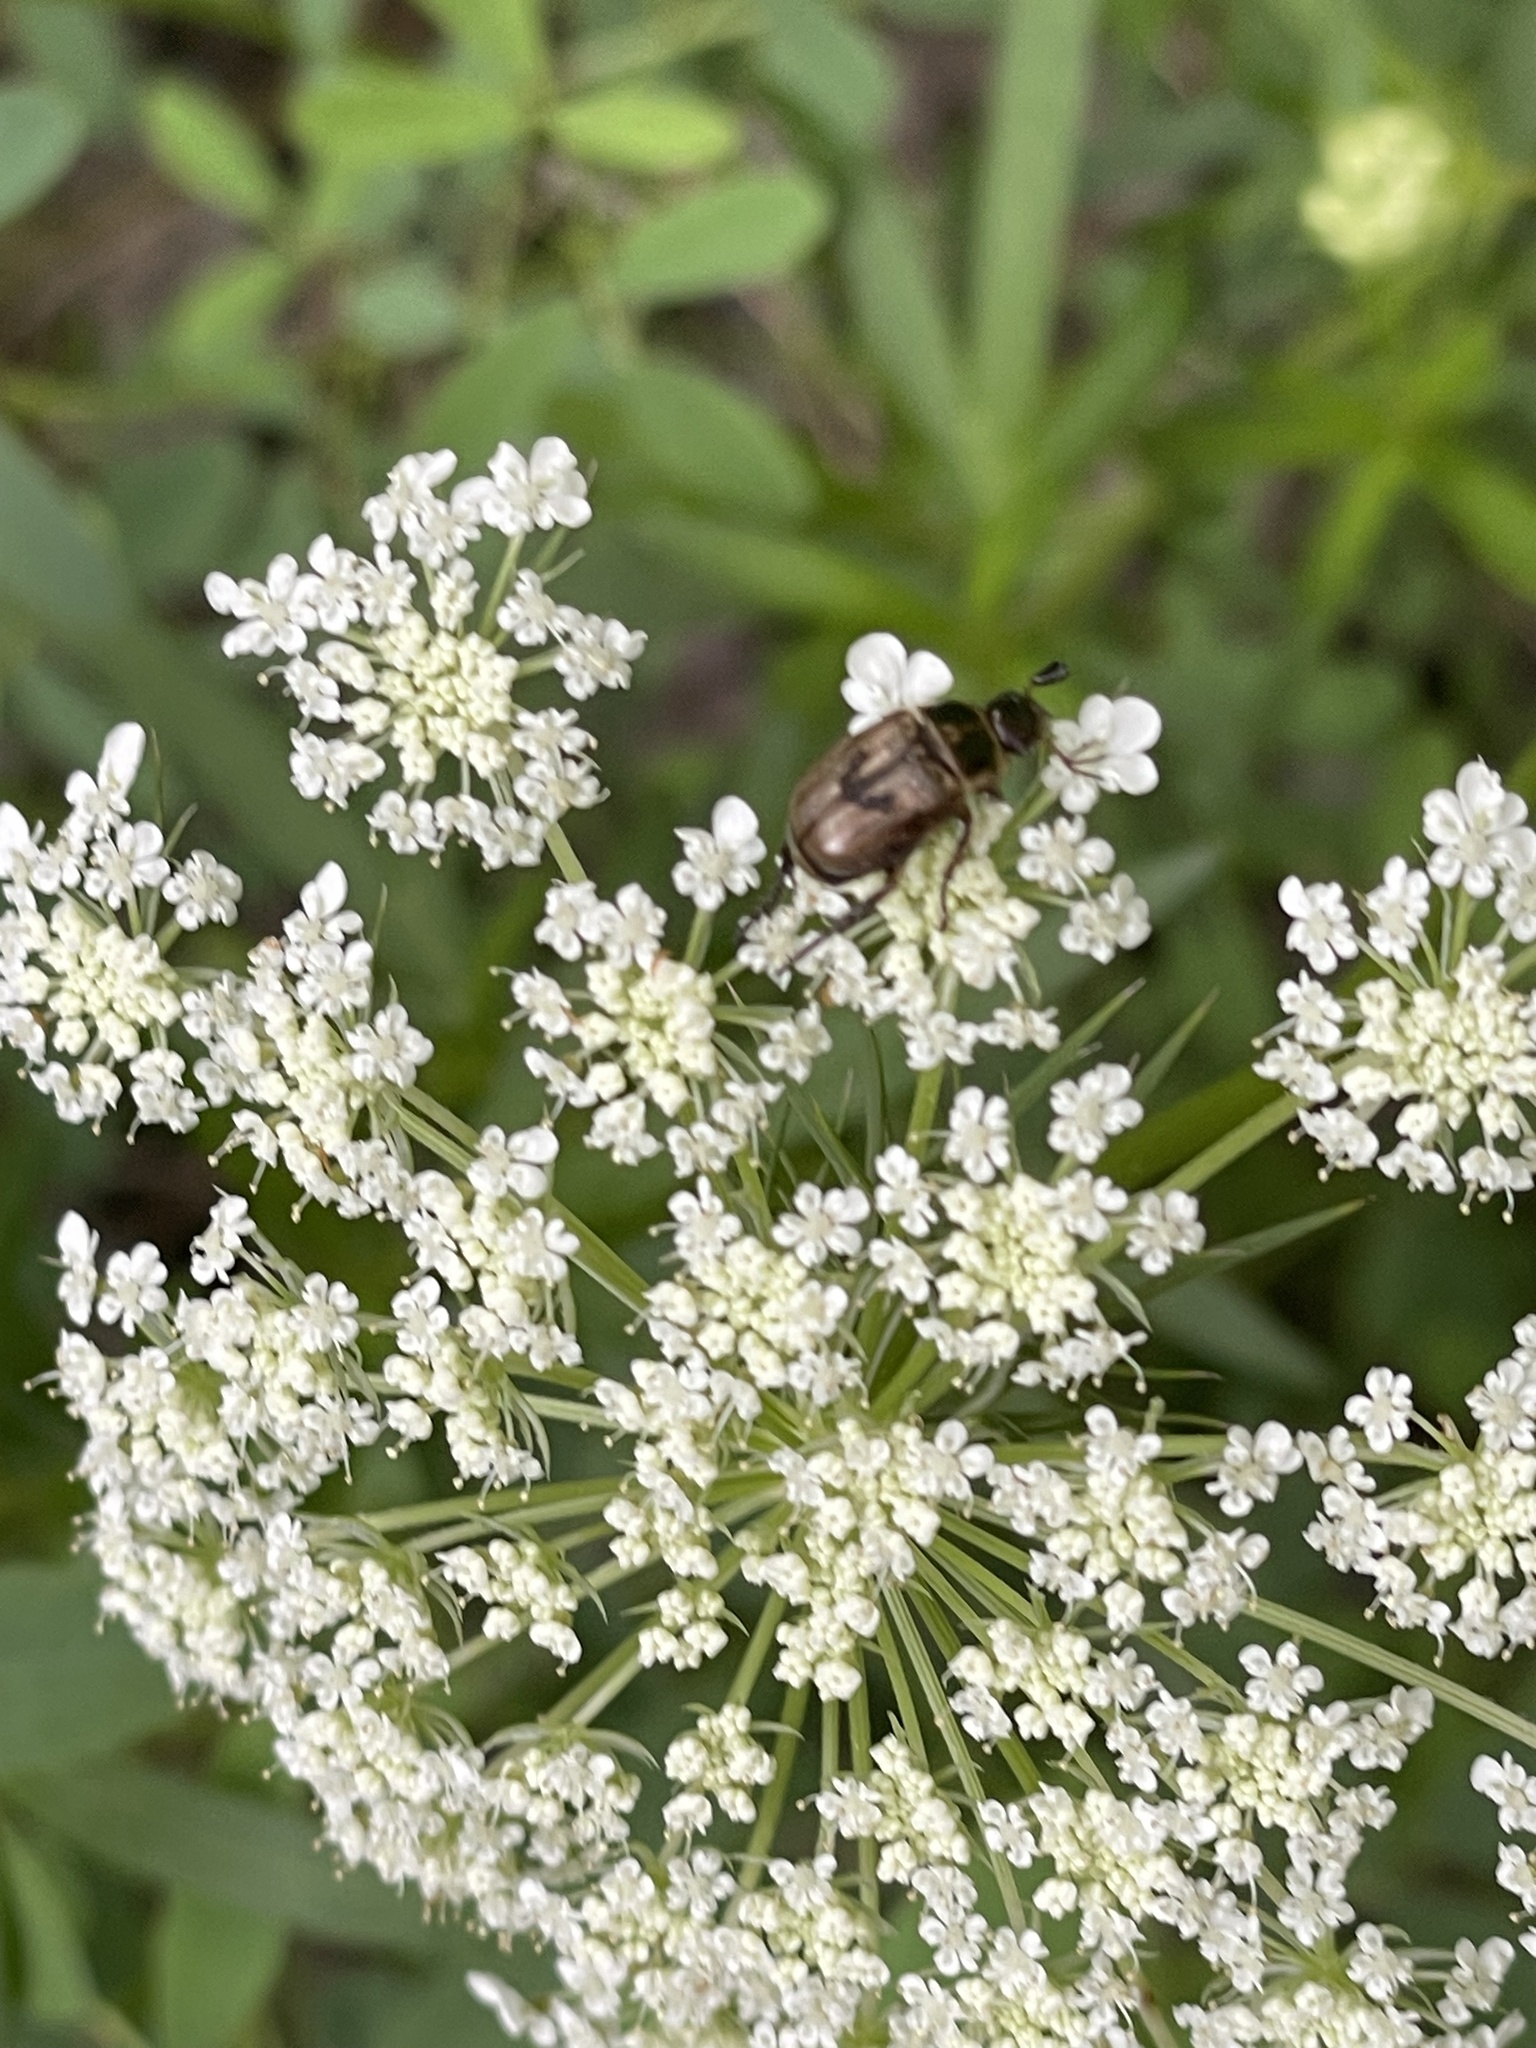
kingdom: Animalia
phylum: Arthropoda
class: Insecta
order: Coleoptera
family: Scarabaeidae
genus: Exomala
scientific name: Exomala orientalis
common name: Oriental beetle
